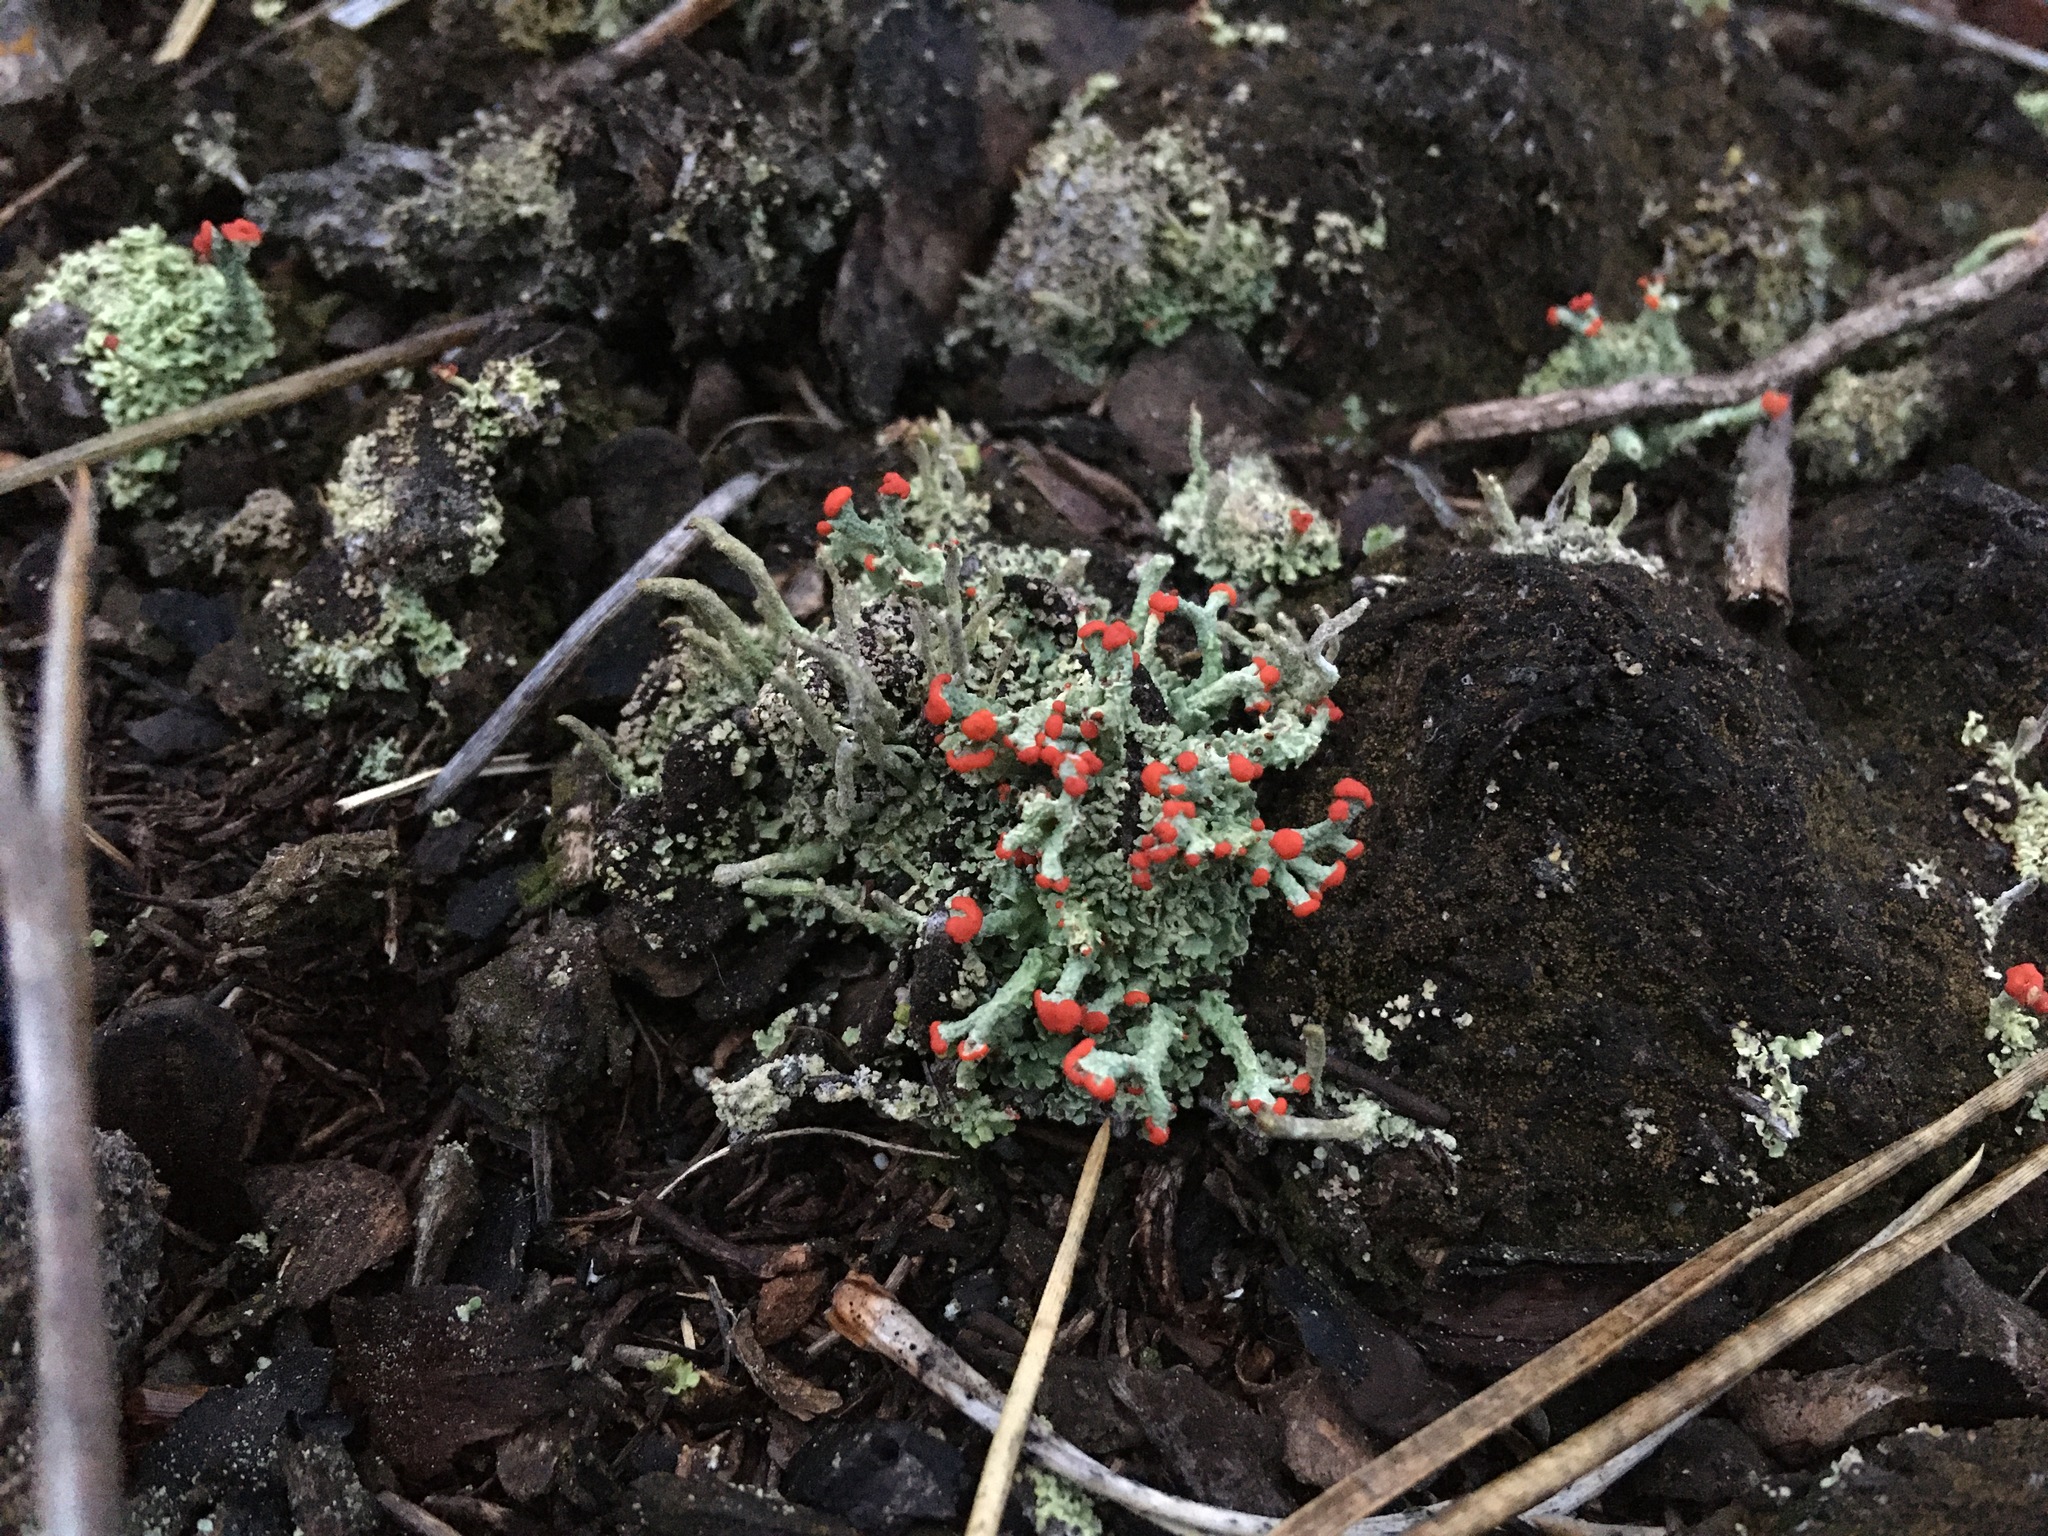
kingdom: Fungi
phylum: Ascomycota
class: Lecanoromycetes
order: Lecanorales
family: Cladoniaceae
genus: Cladonia
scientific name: Cladonia cristatella
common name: British soldier lichen
